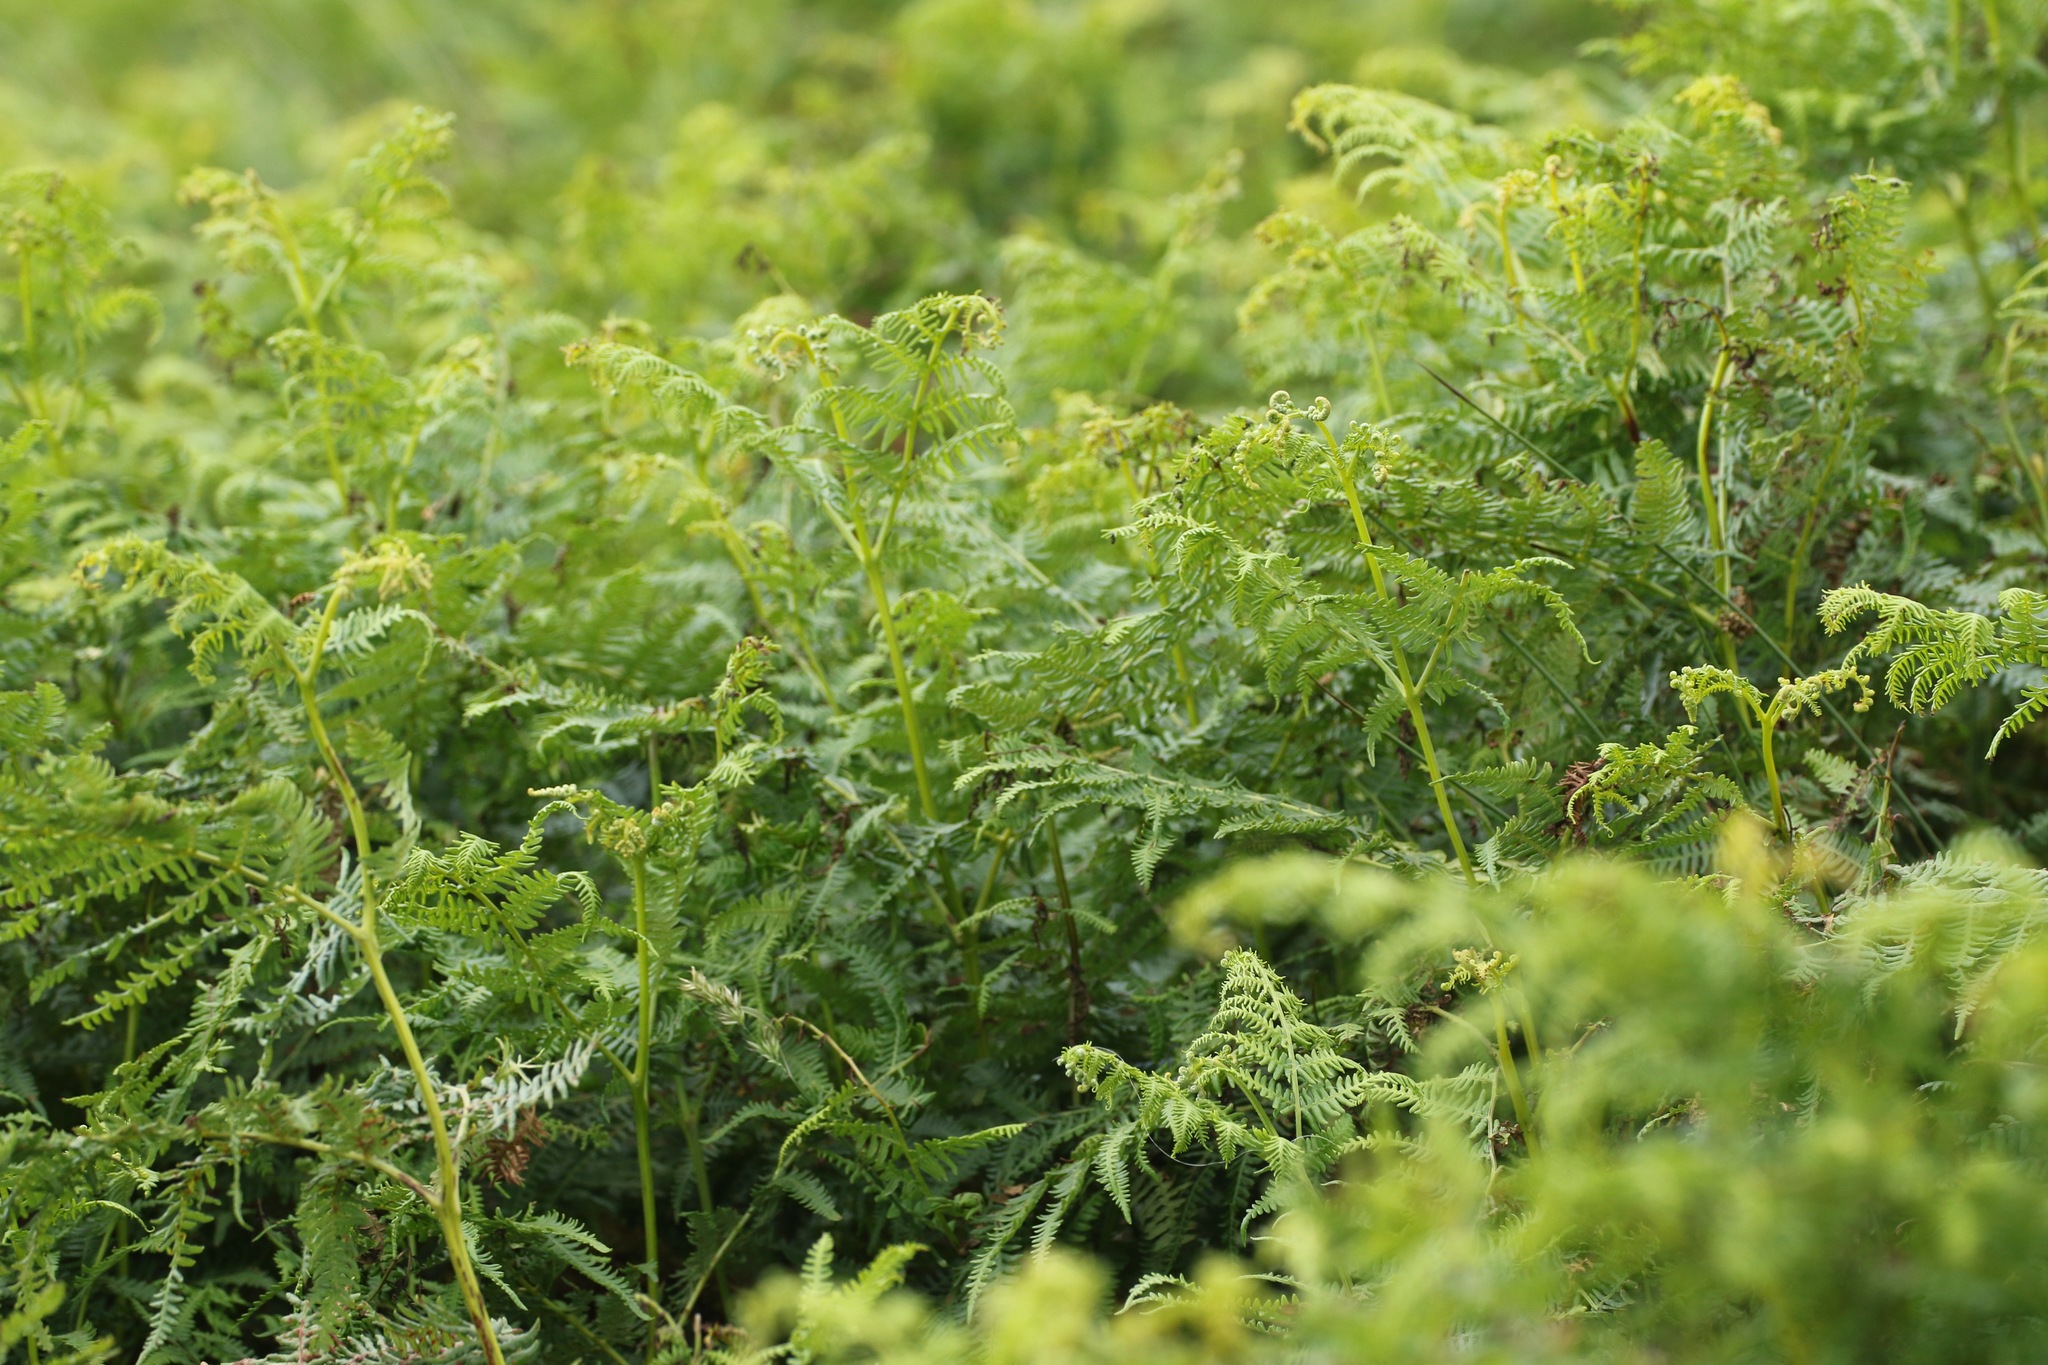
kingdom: Plantae
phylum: Tracheophyta
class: Polypodiopsida
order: Polypodiales
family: Dennstaedtiaceae
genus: Pteridium
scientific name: Pteridium aquilinum
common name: Bracken
